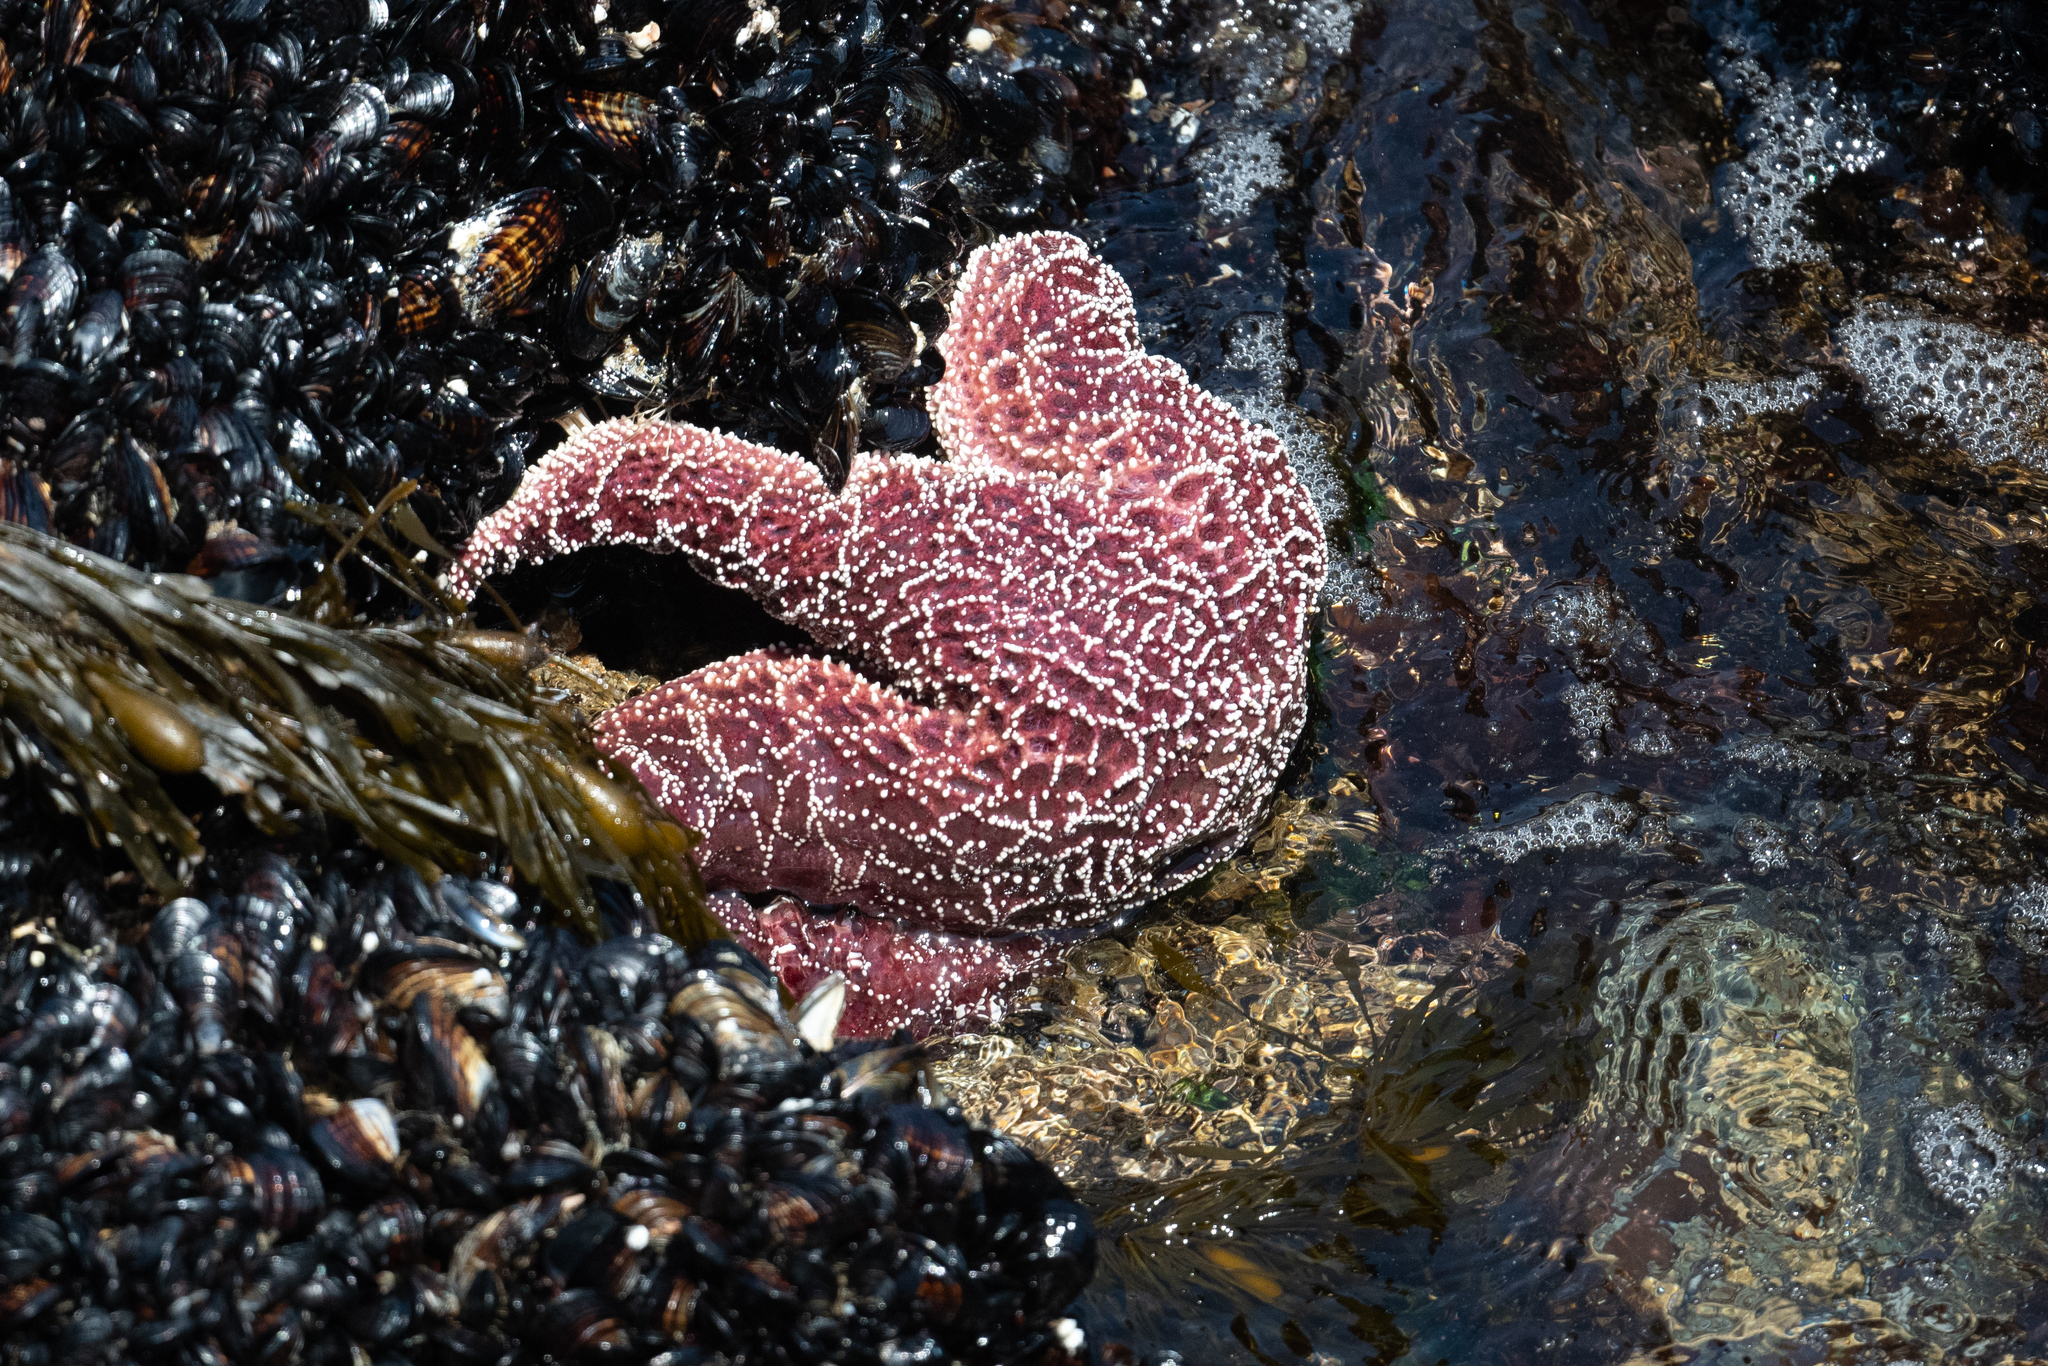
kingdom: Animalia
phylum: Echinodermata
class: Asteroidea
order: Forcipulatida
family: Asteriidae
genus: Pisaster
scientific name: Pisaster ochraceus
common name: Ochre stars
